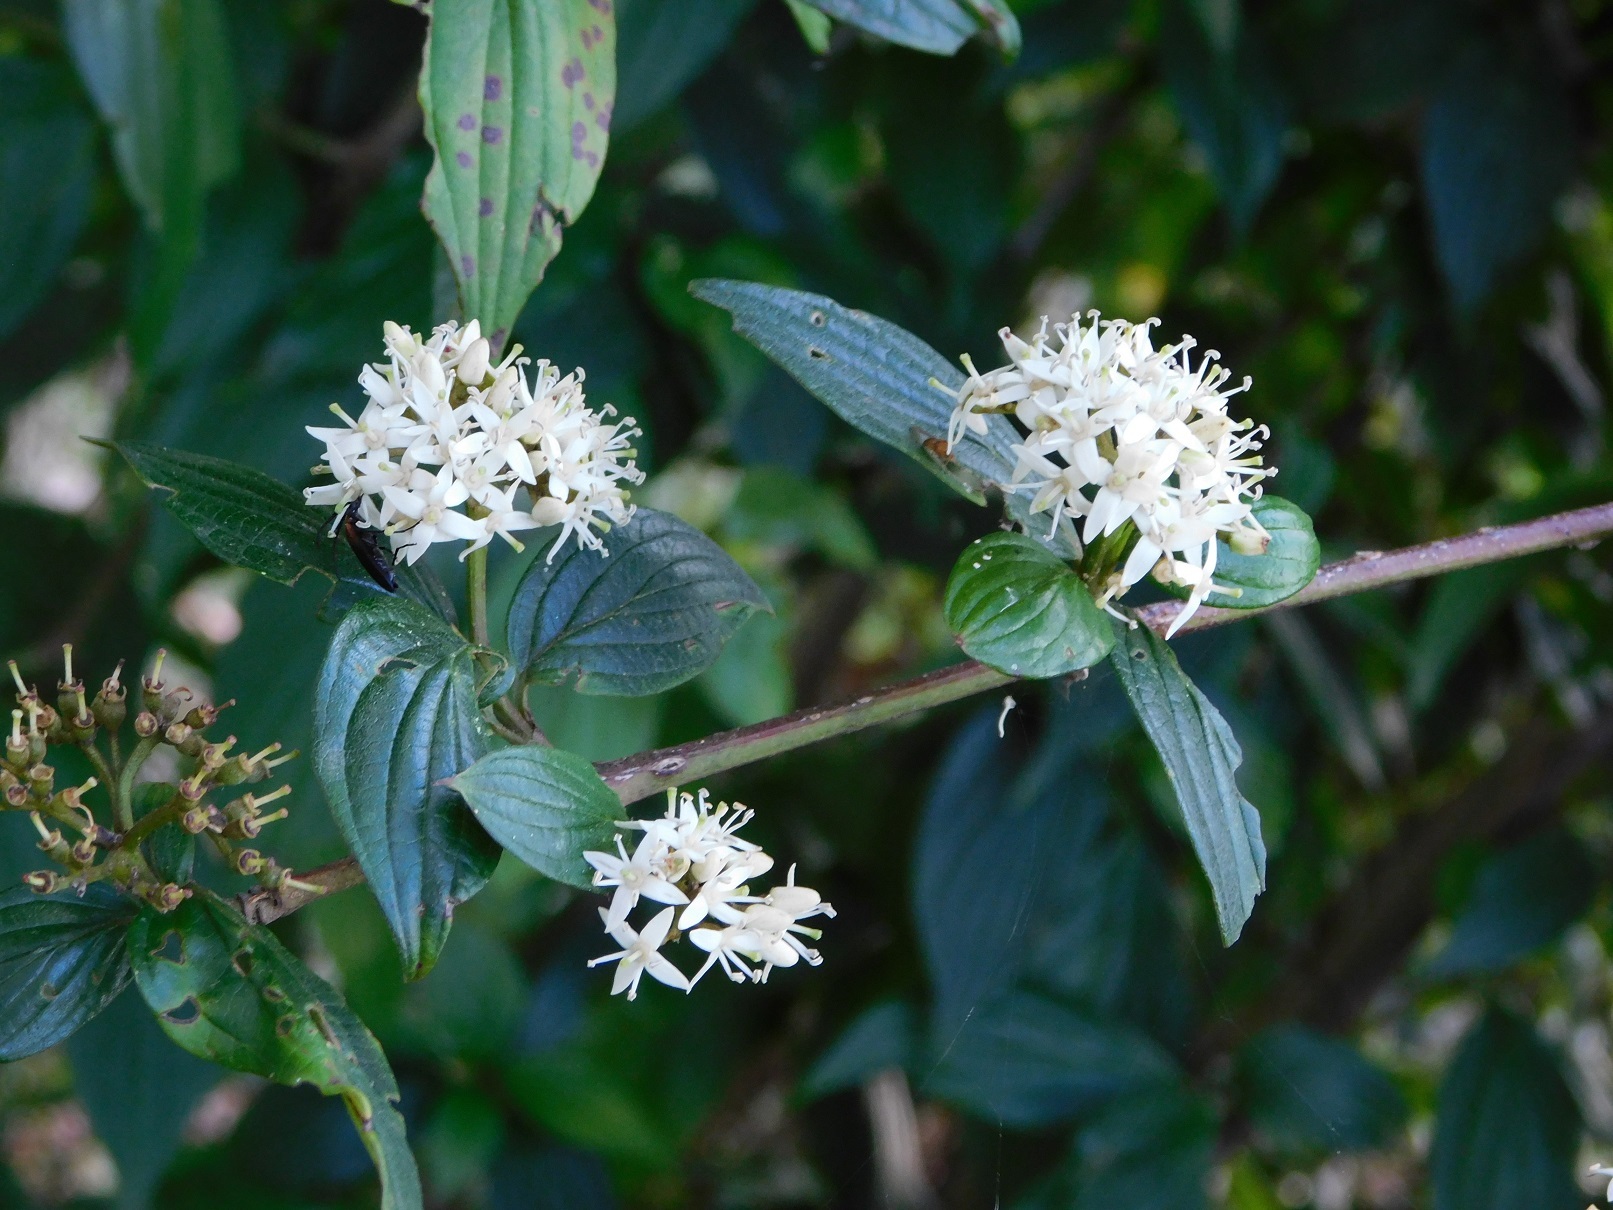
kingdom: Plantae
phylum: Tracheophyta
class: Magnoliopsida
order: Cornales
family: Cornaceae
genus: Cornus
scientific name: Cornus excelsa
